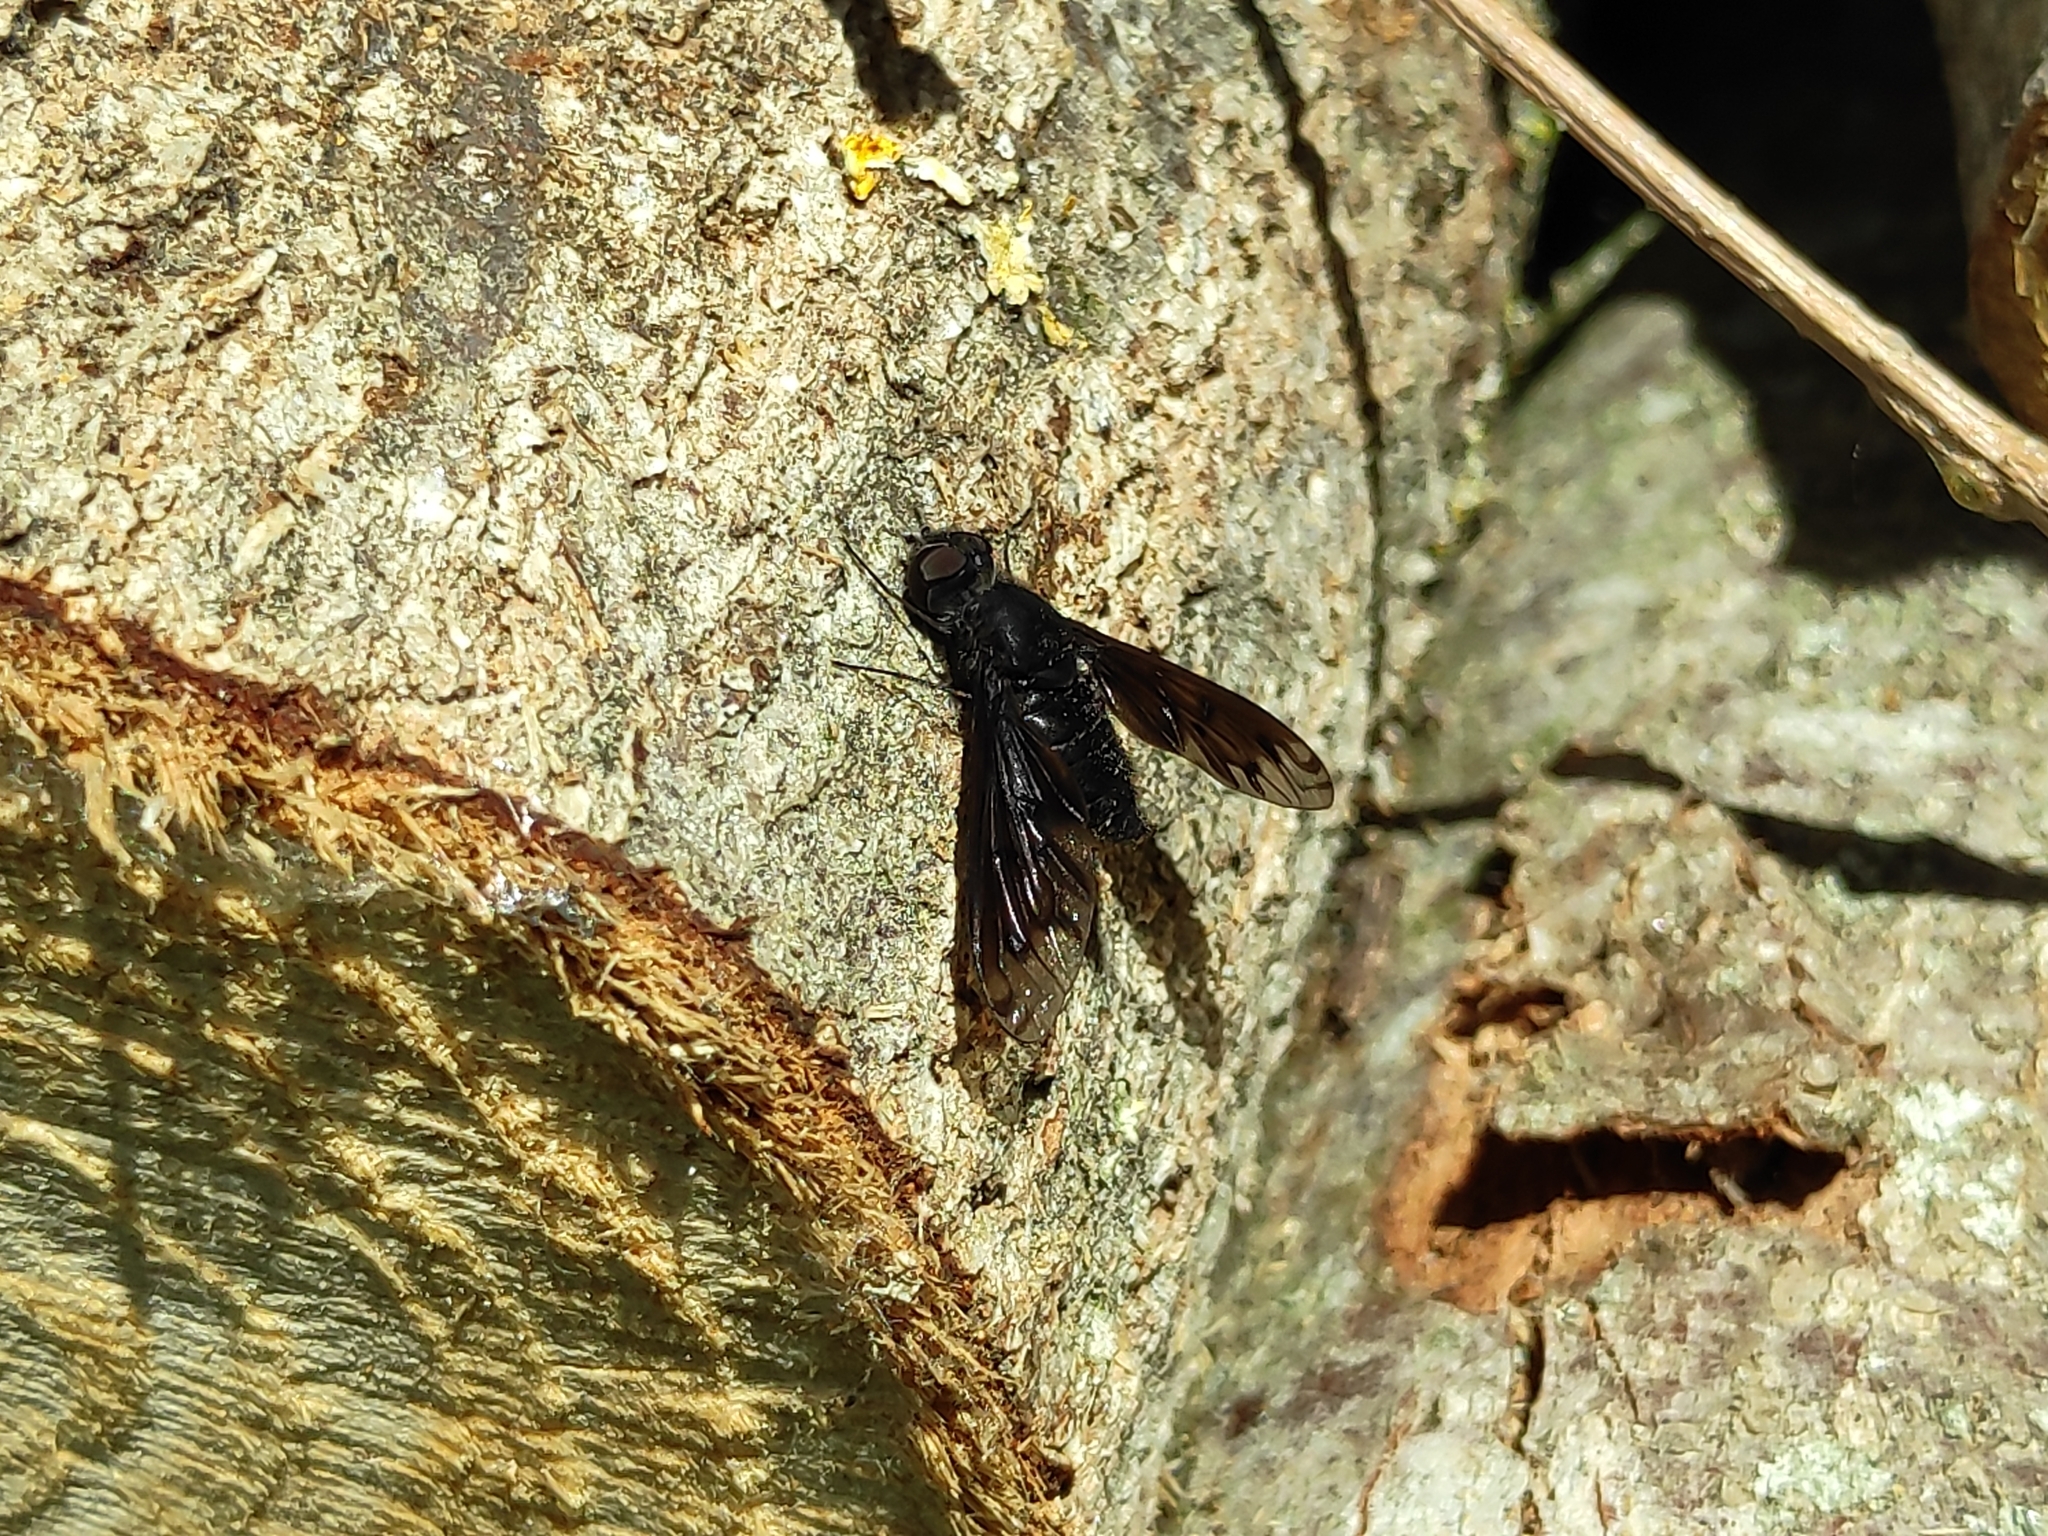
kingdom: Animalia
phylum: Arthropoda
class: Insecta
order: Diptera
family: Bombyliidae
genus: Anthrax
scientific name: Anthrax anthrax
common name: Anthracite bee-fly
